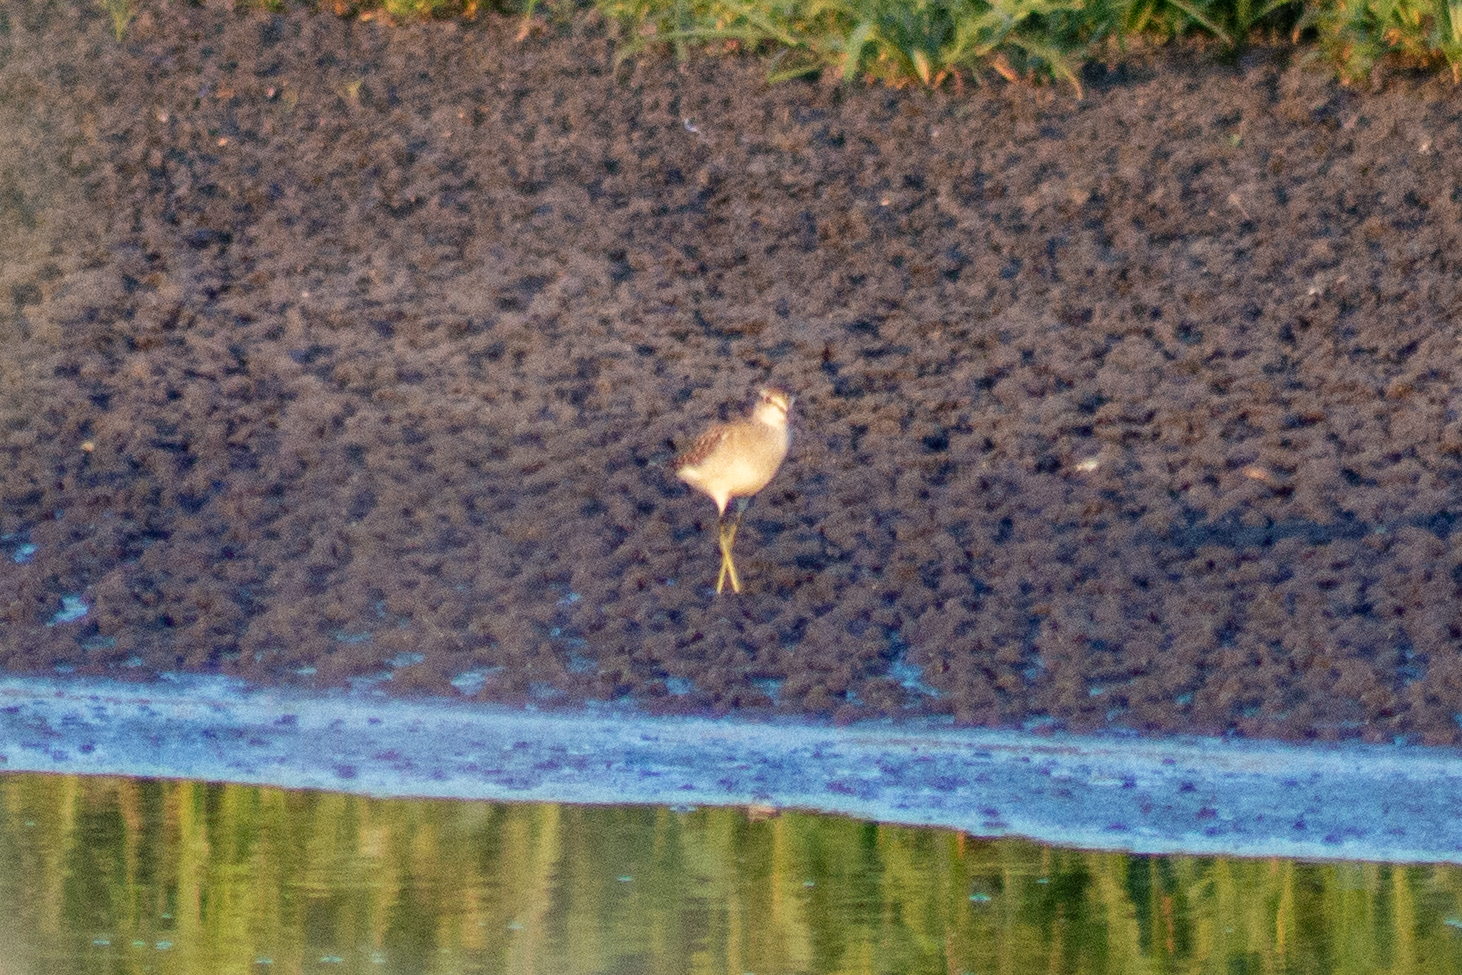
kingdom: Animalia
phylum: Chordata
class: Aves
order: Charadriiformes
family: Scolopacidae
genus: Tringa
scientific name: Tringa glareola
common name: Wood sandpiper
